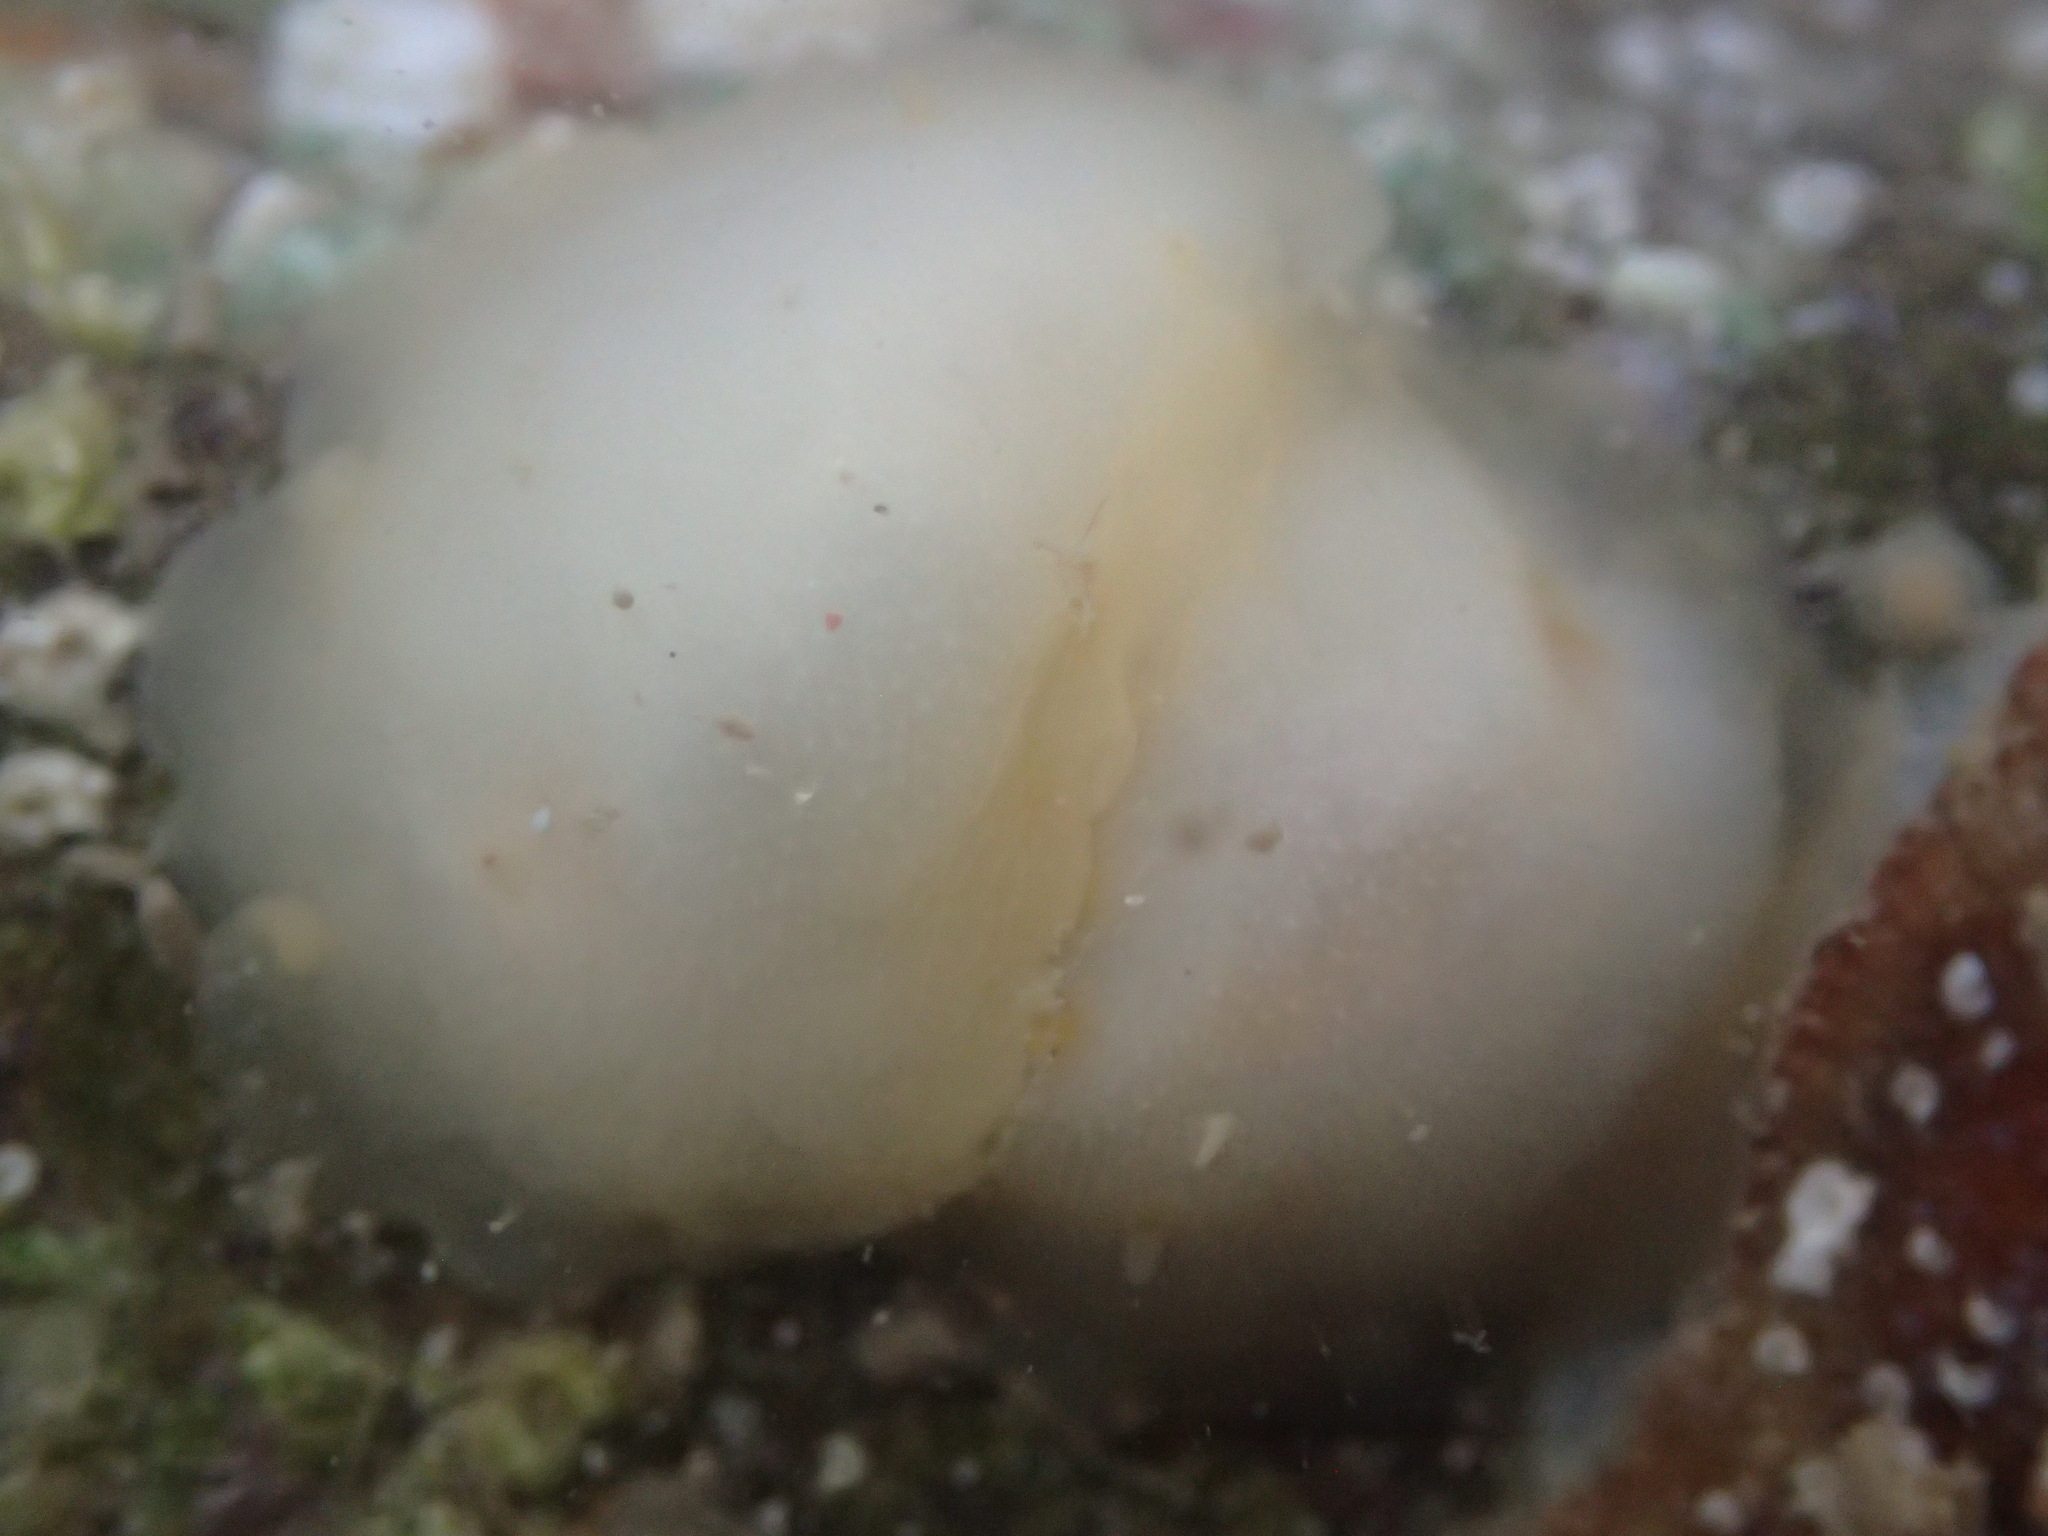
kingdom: Animalia
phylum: Mollusca
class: Gastropoda
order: Nudibranchia
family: Dorididae
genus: Conualevia
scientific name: Conualevia marcusi
